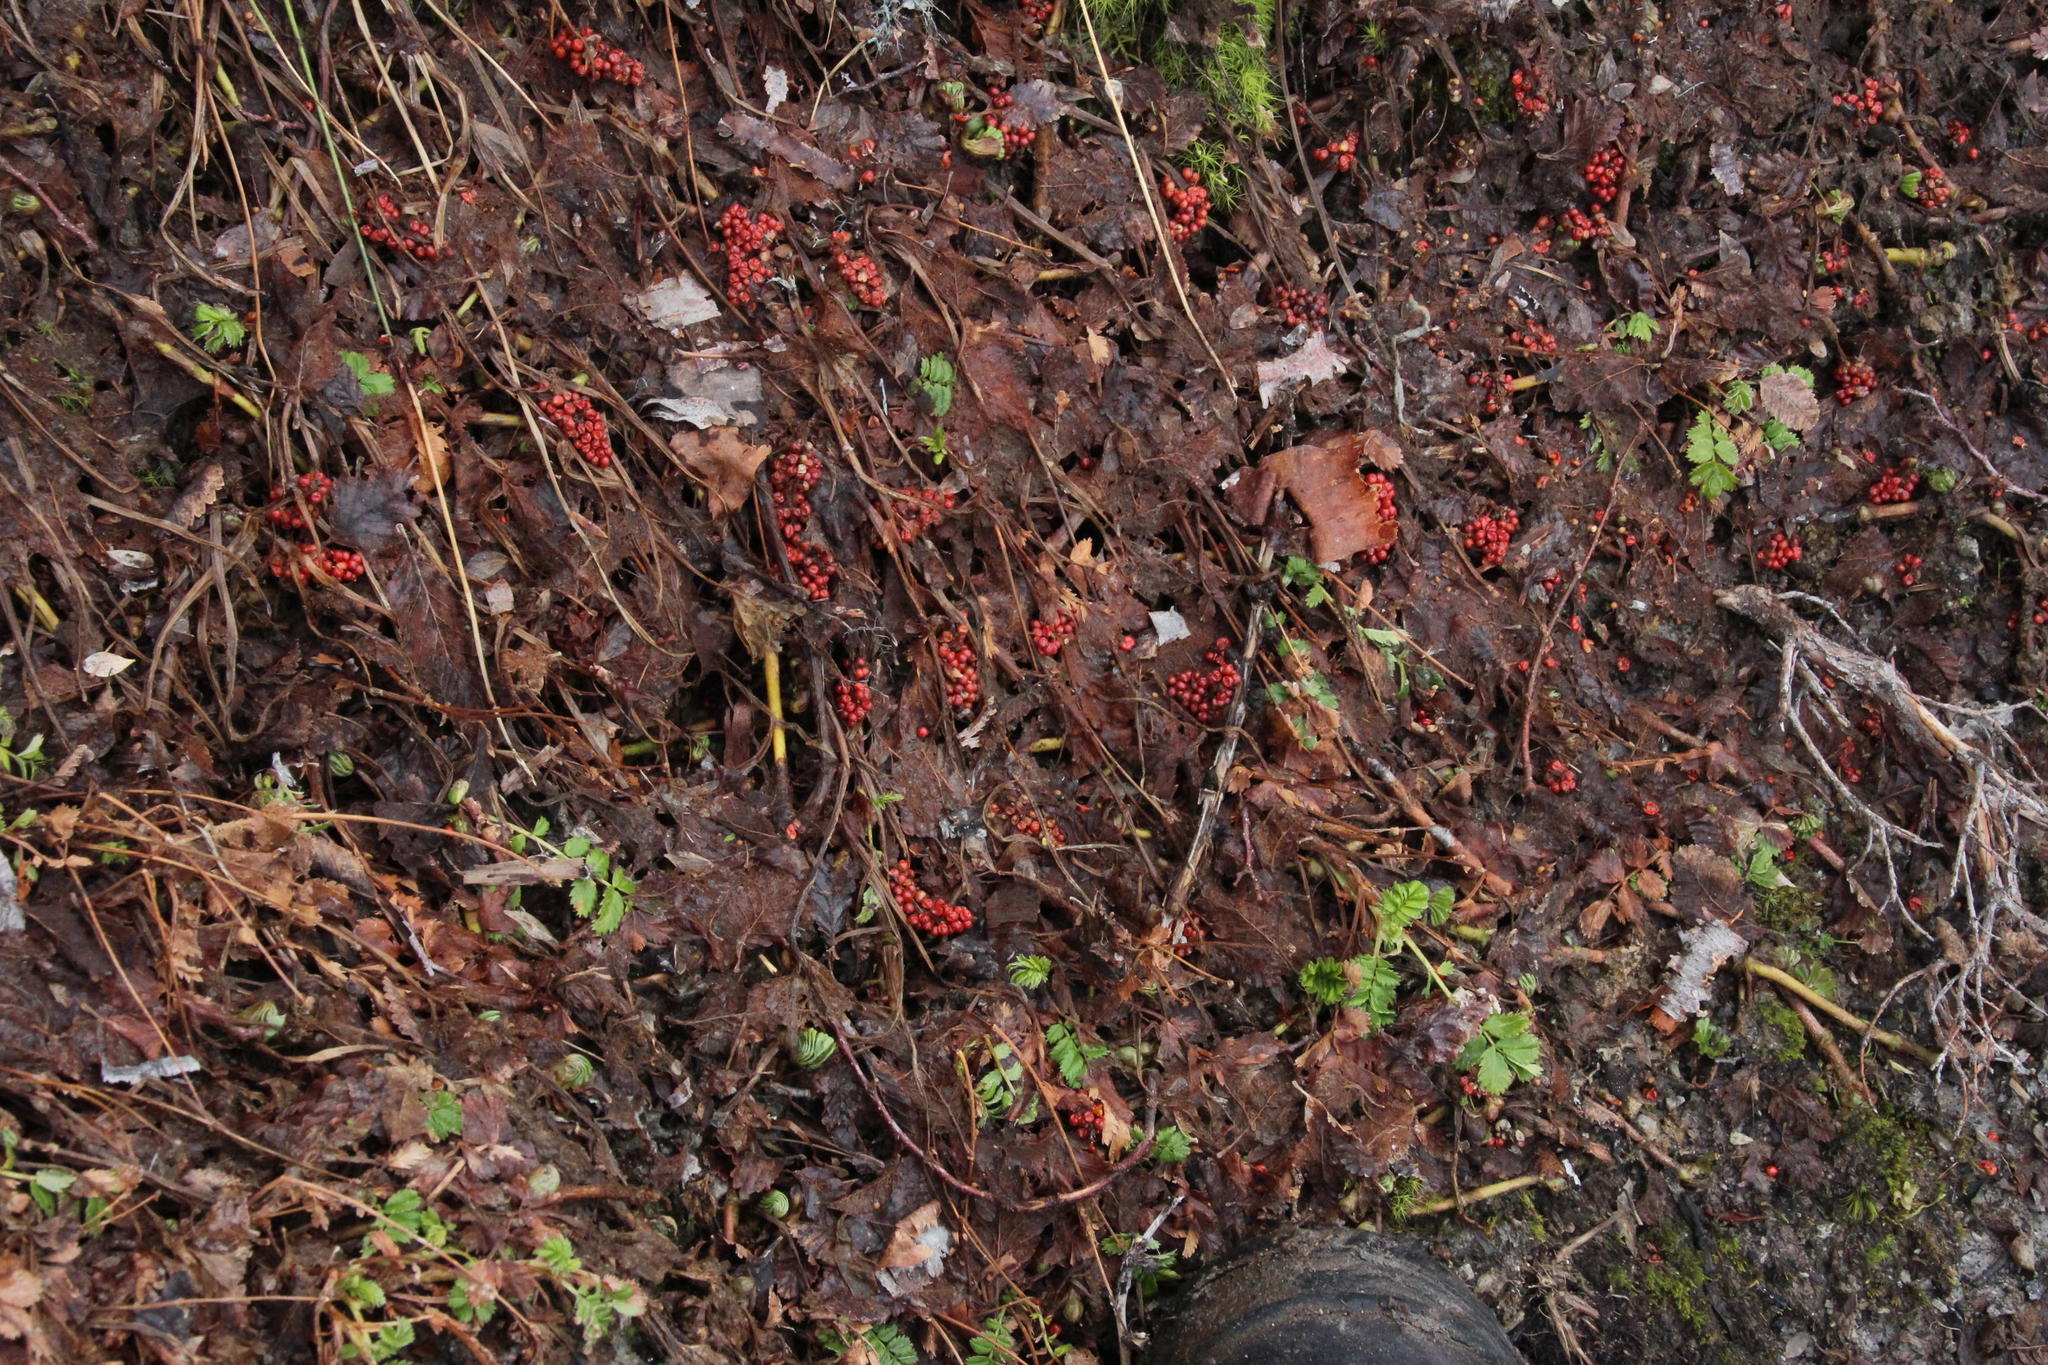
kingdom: Plantae
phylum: Tracheophyta
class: Magnoliopsida
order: Gunnerales
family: Gunneraceae
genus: Gunnera
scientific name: Gunnera magellanica
